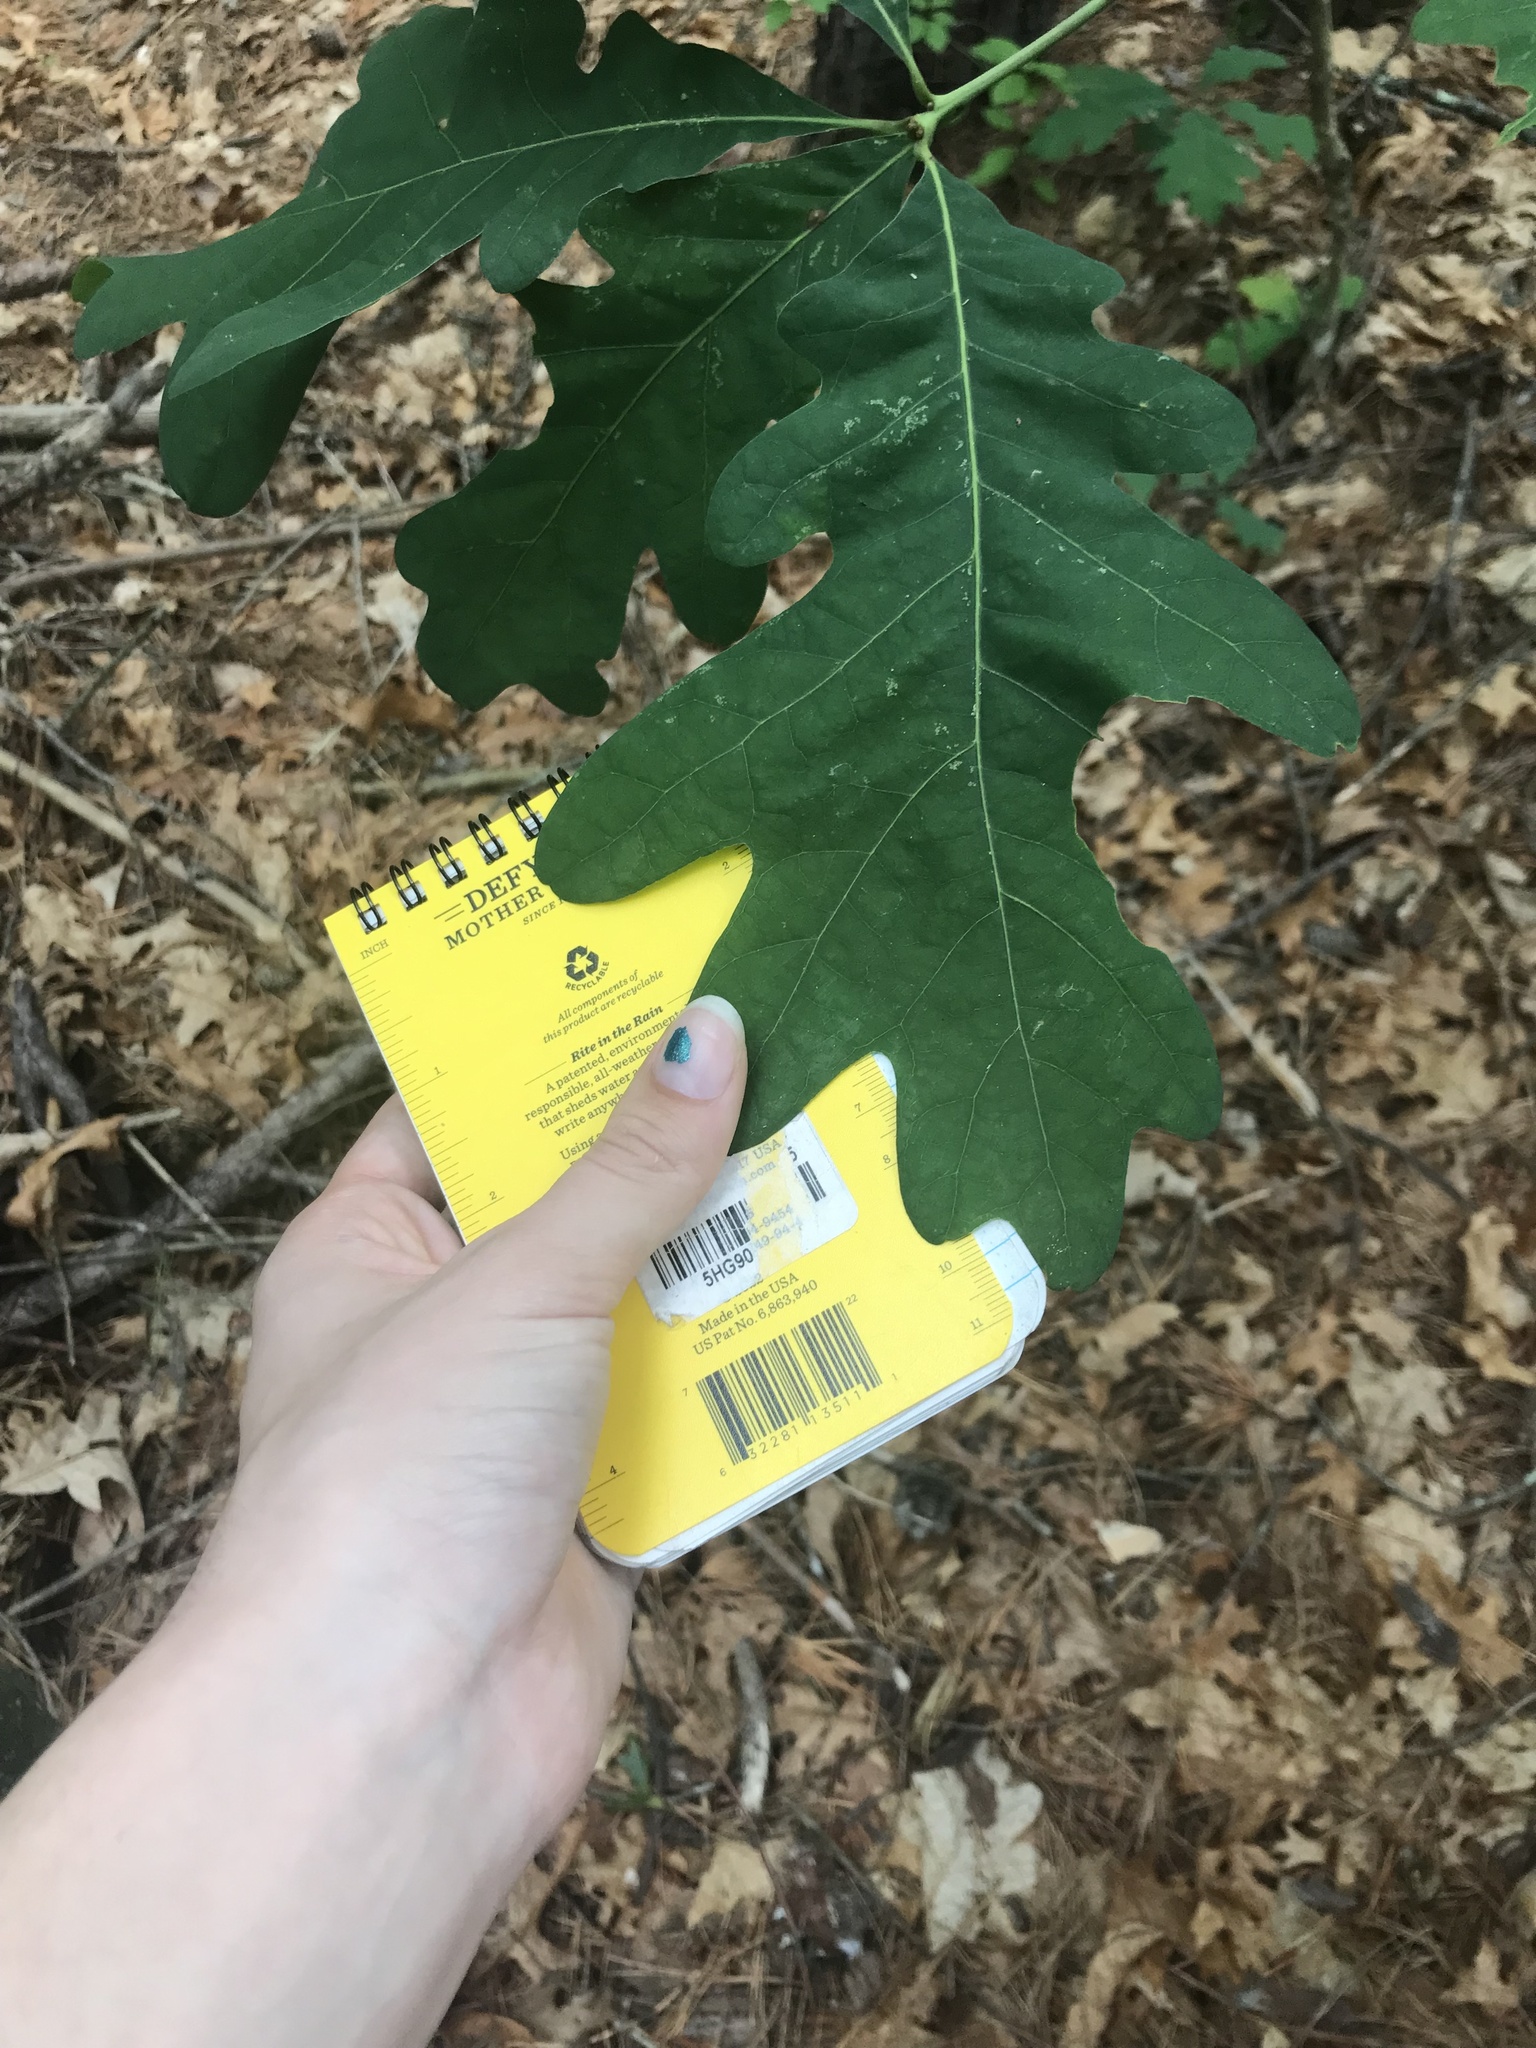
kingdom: Plantae
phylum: Tracheophyta
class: Magnoliopsida
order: Fagales
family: Fagaceae
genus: Quercus
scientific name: Quercus alba
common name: White oak
